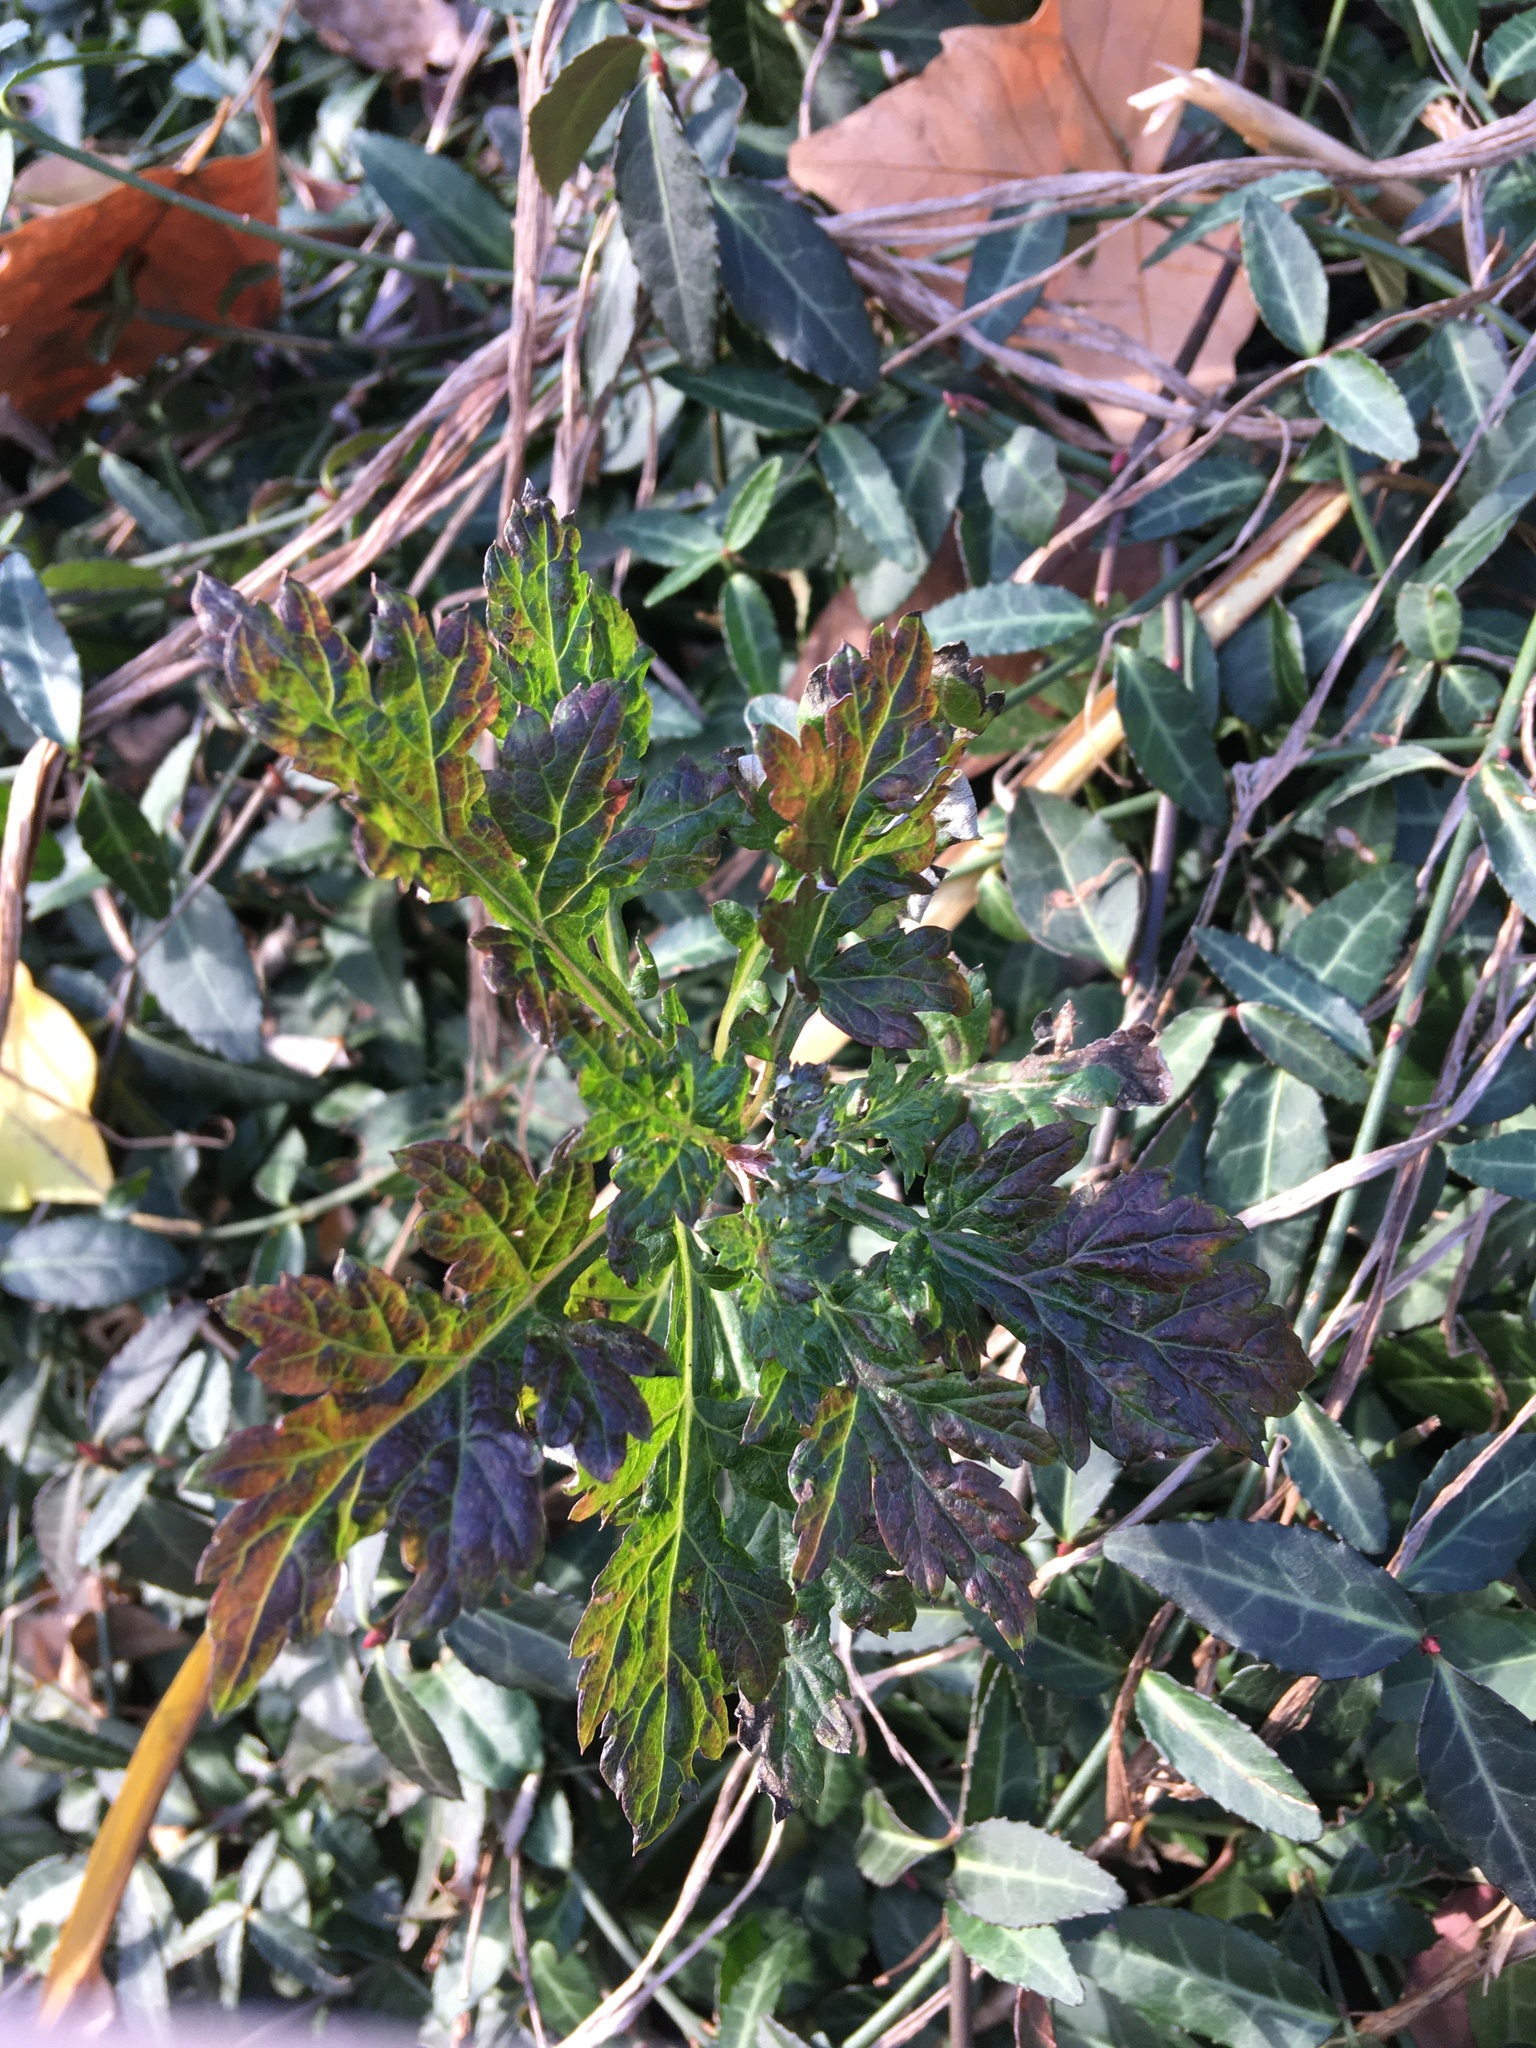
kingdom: Plantae
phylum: Tracheophyta
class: Magnoliopsida
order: Asterales
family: Asteraceae
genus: Artemisia
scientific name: Artemisia vulgaris
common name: Mugwort
